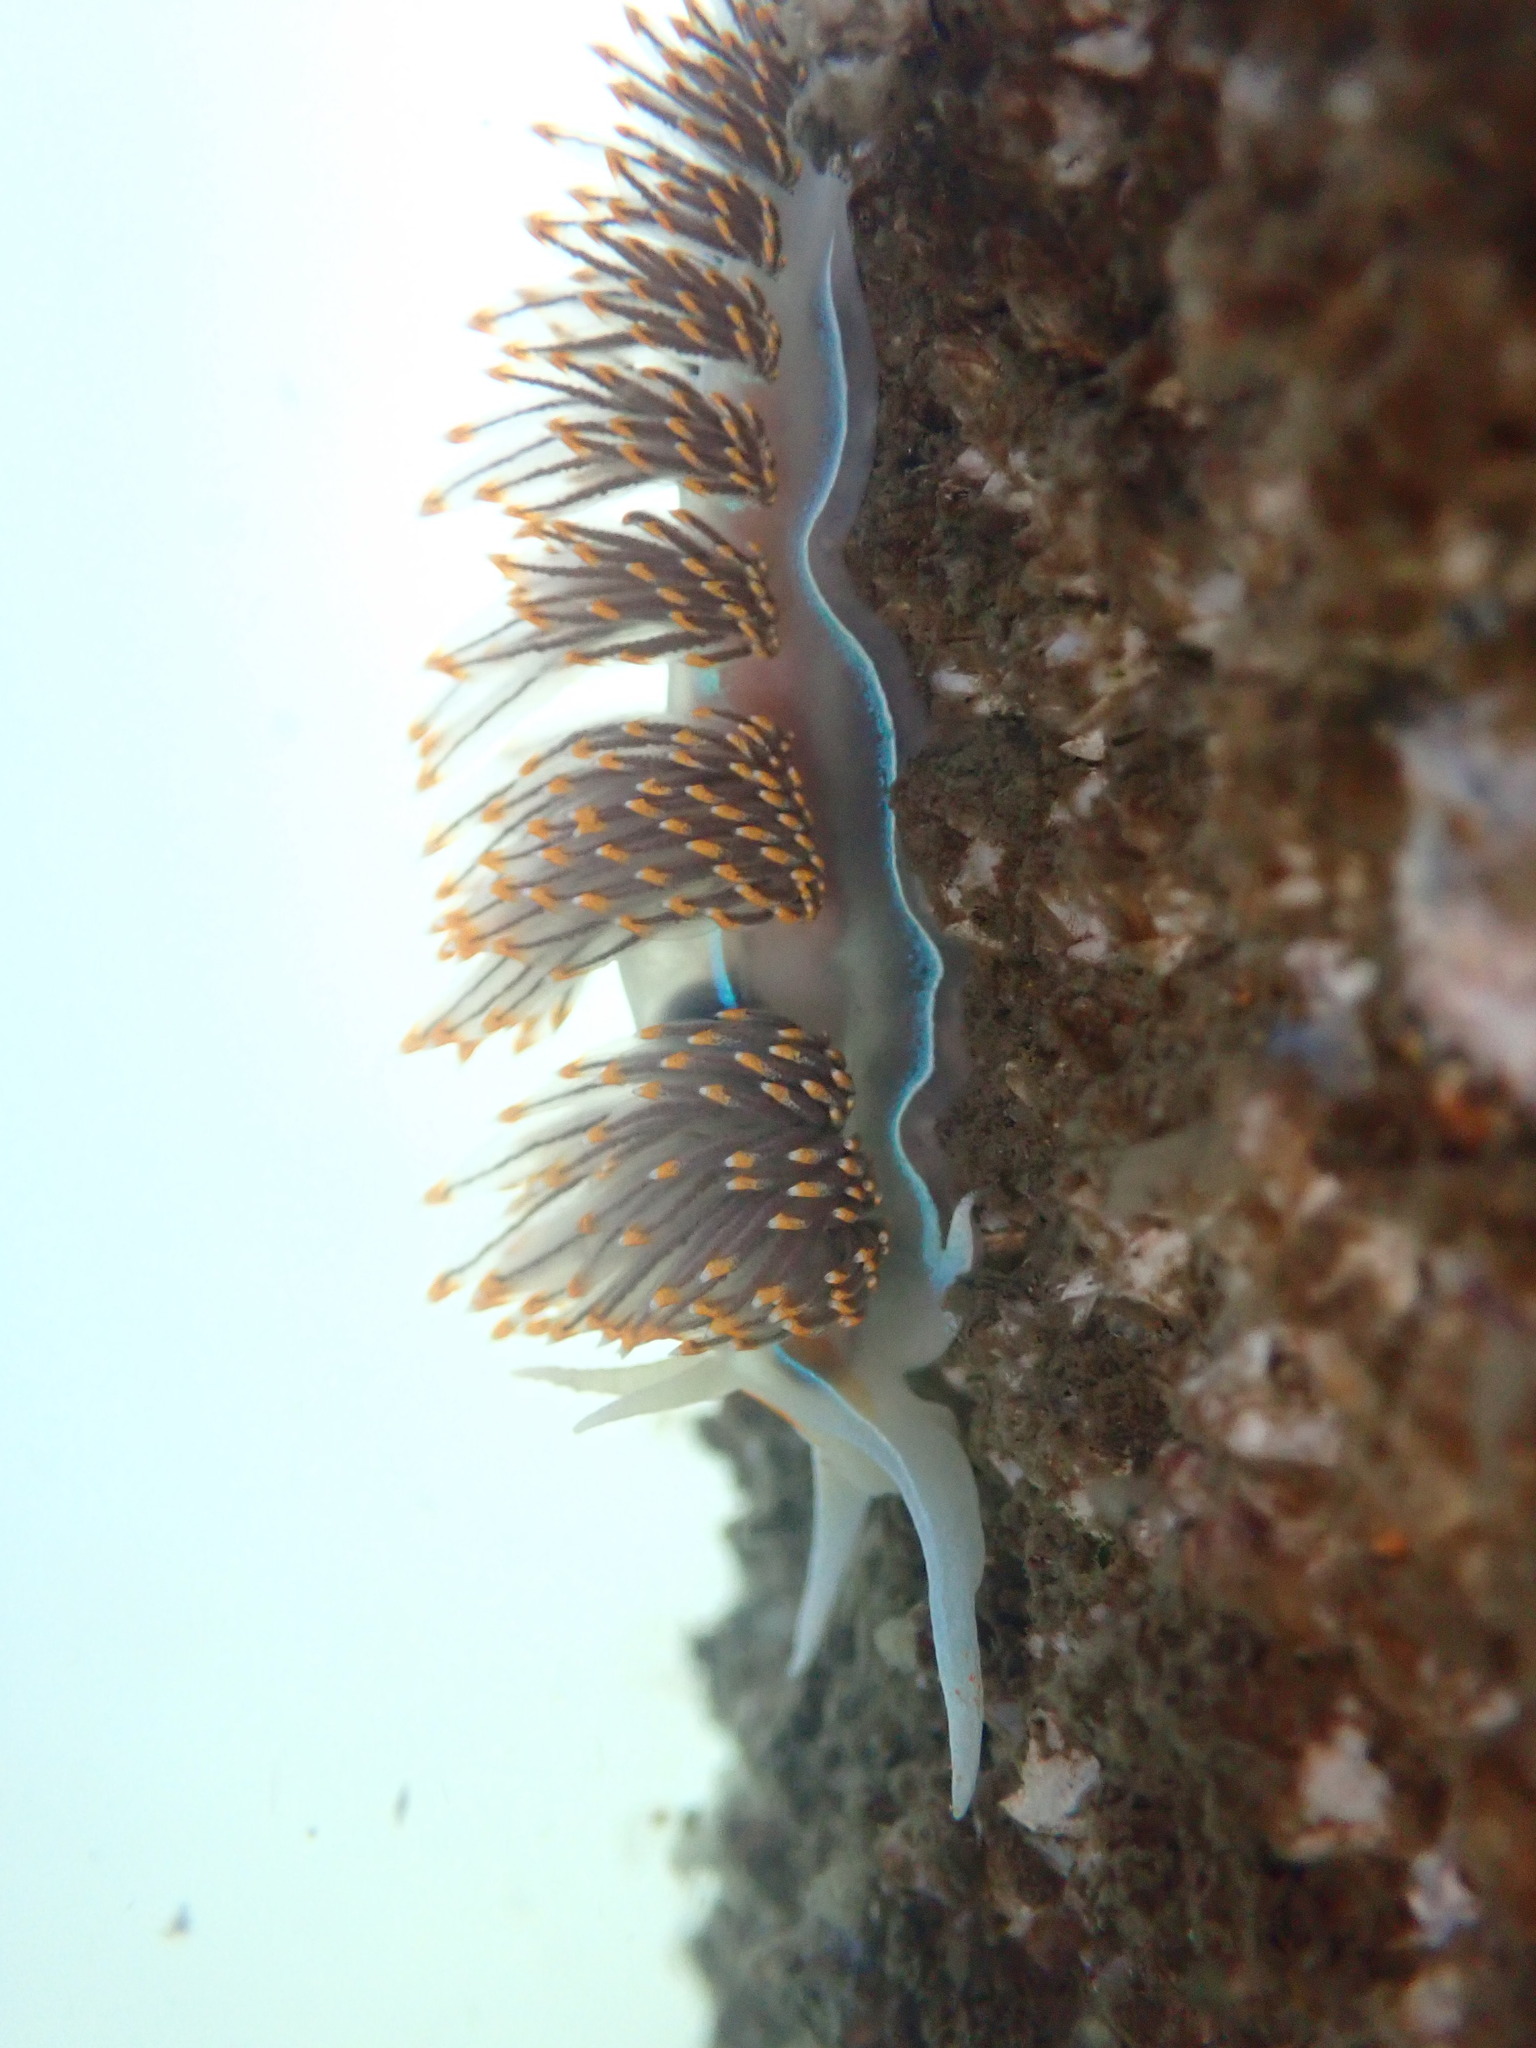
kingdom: Animalia
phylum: Mollusca
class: Gastropoda
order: Nudibranchia
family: Myrrhinidae
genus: Hermissenda
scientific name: Hermissenda opalescens
